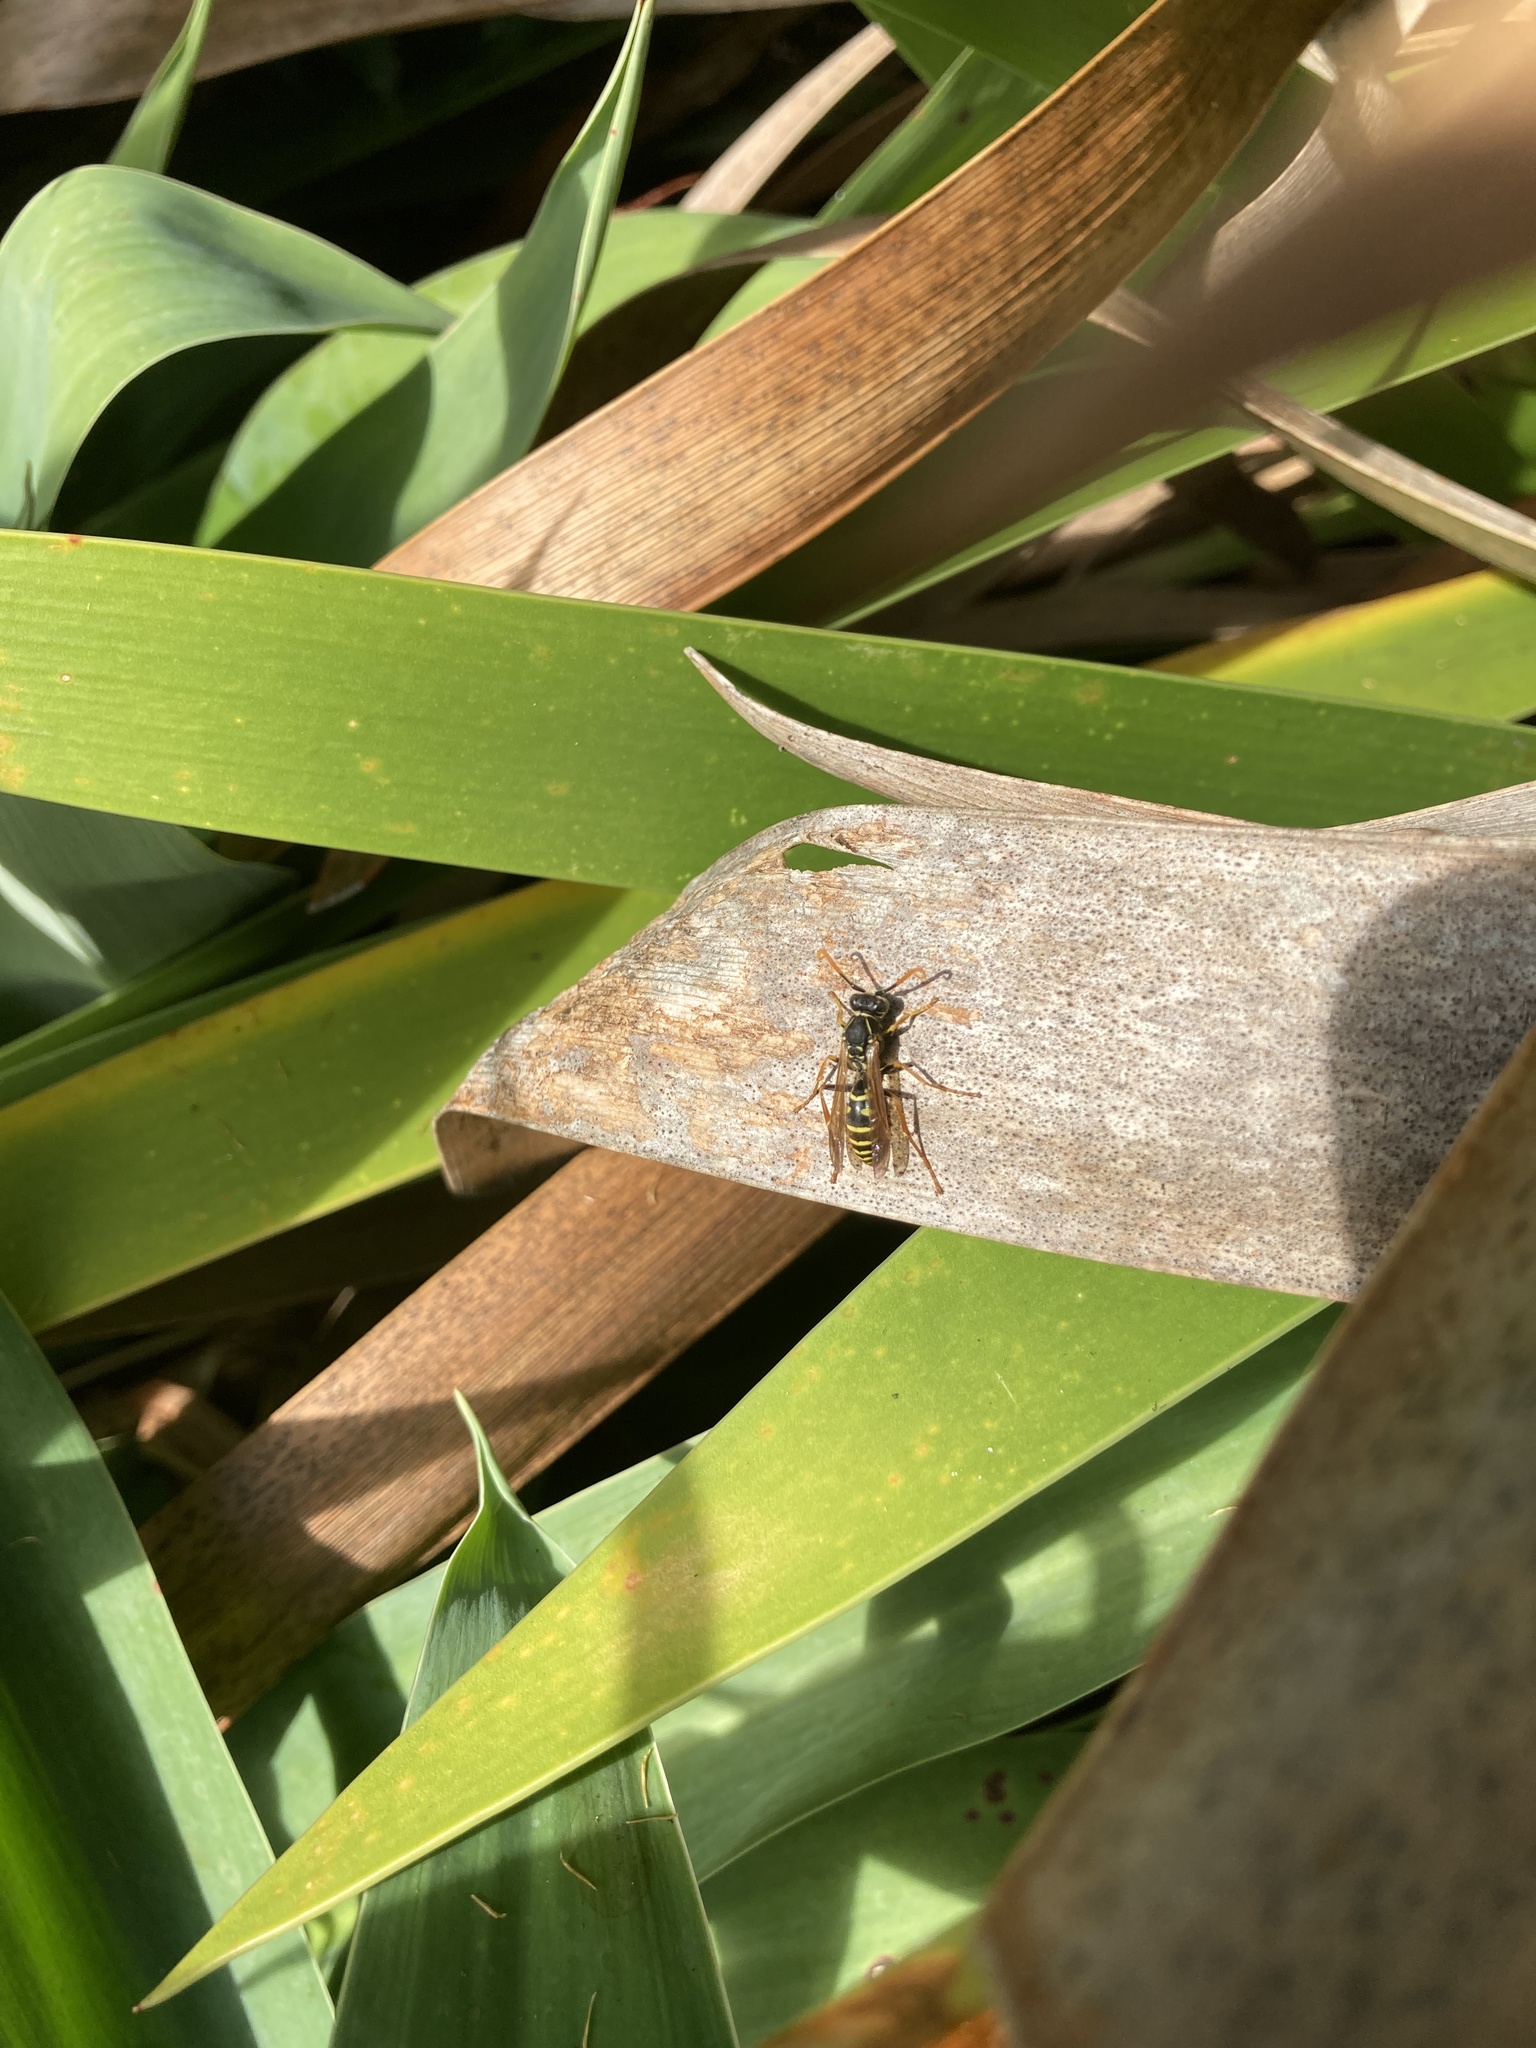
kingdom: Animalia
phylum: Arthropoda
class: Insecta
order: Hymenoptera
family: Eumenidae
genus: Polistes
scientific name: Polistes chinensis
